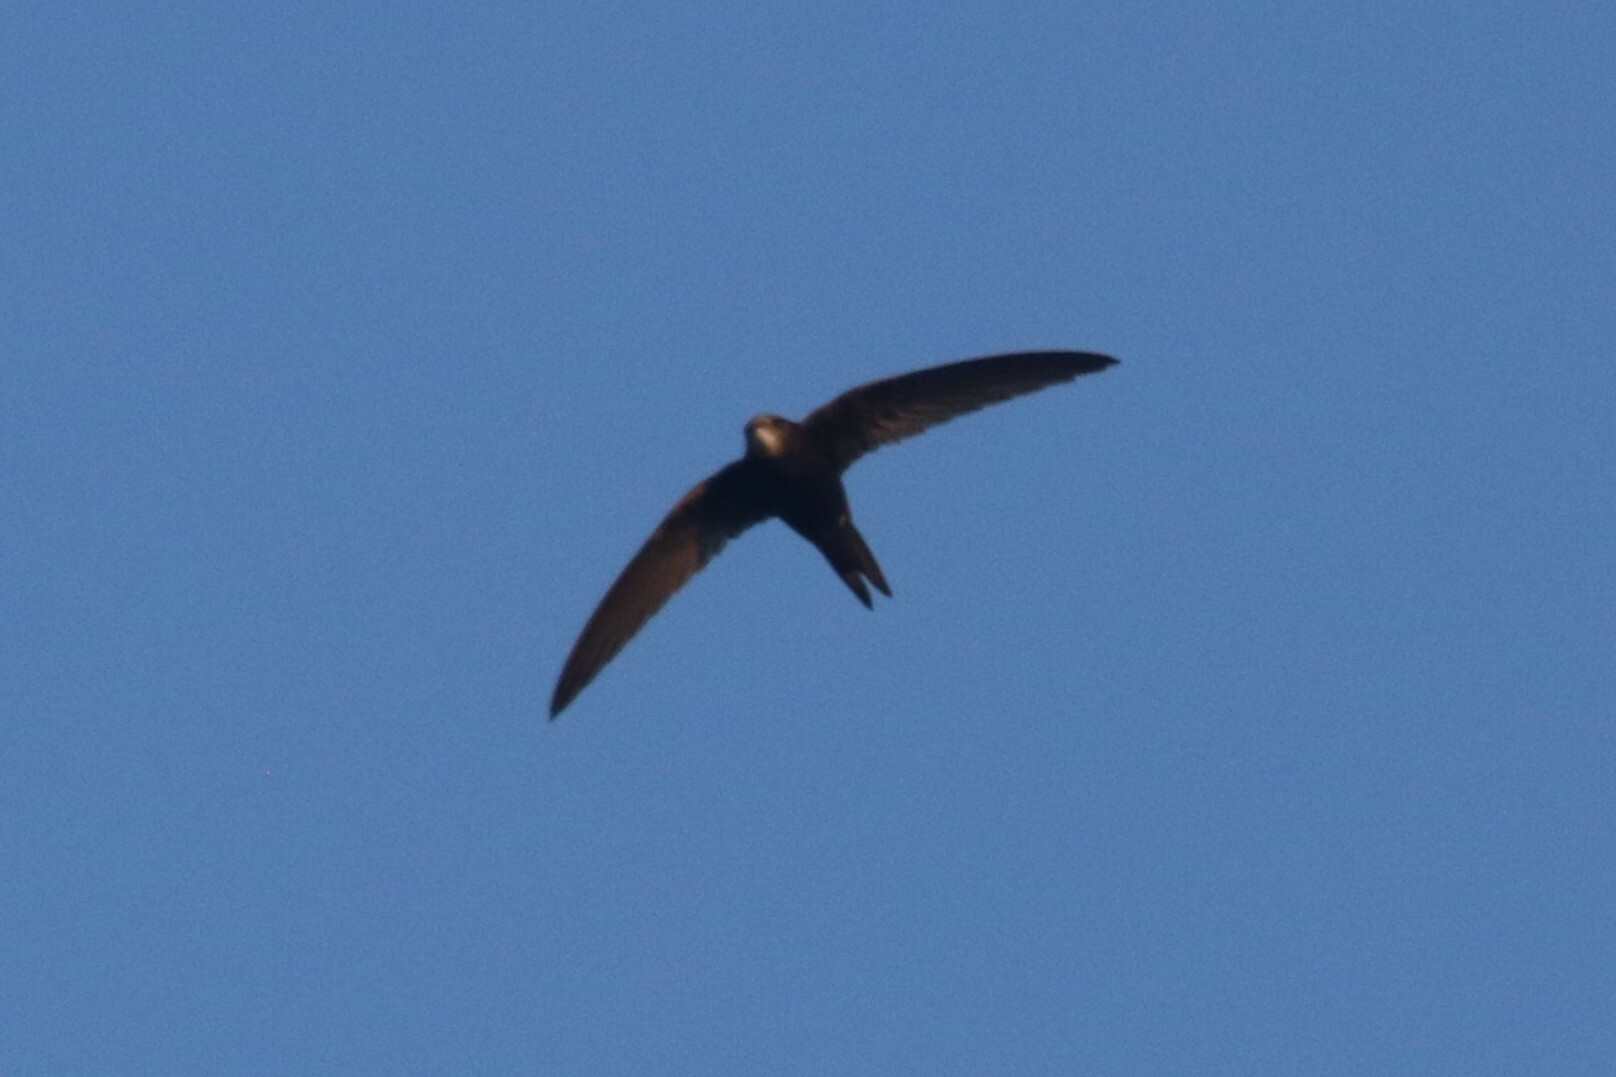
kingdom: Animalia
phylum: Chordata
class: Aves
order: Apodiformes
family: Apodidae
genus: Apus
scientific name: Apus apus
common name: Common swift
